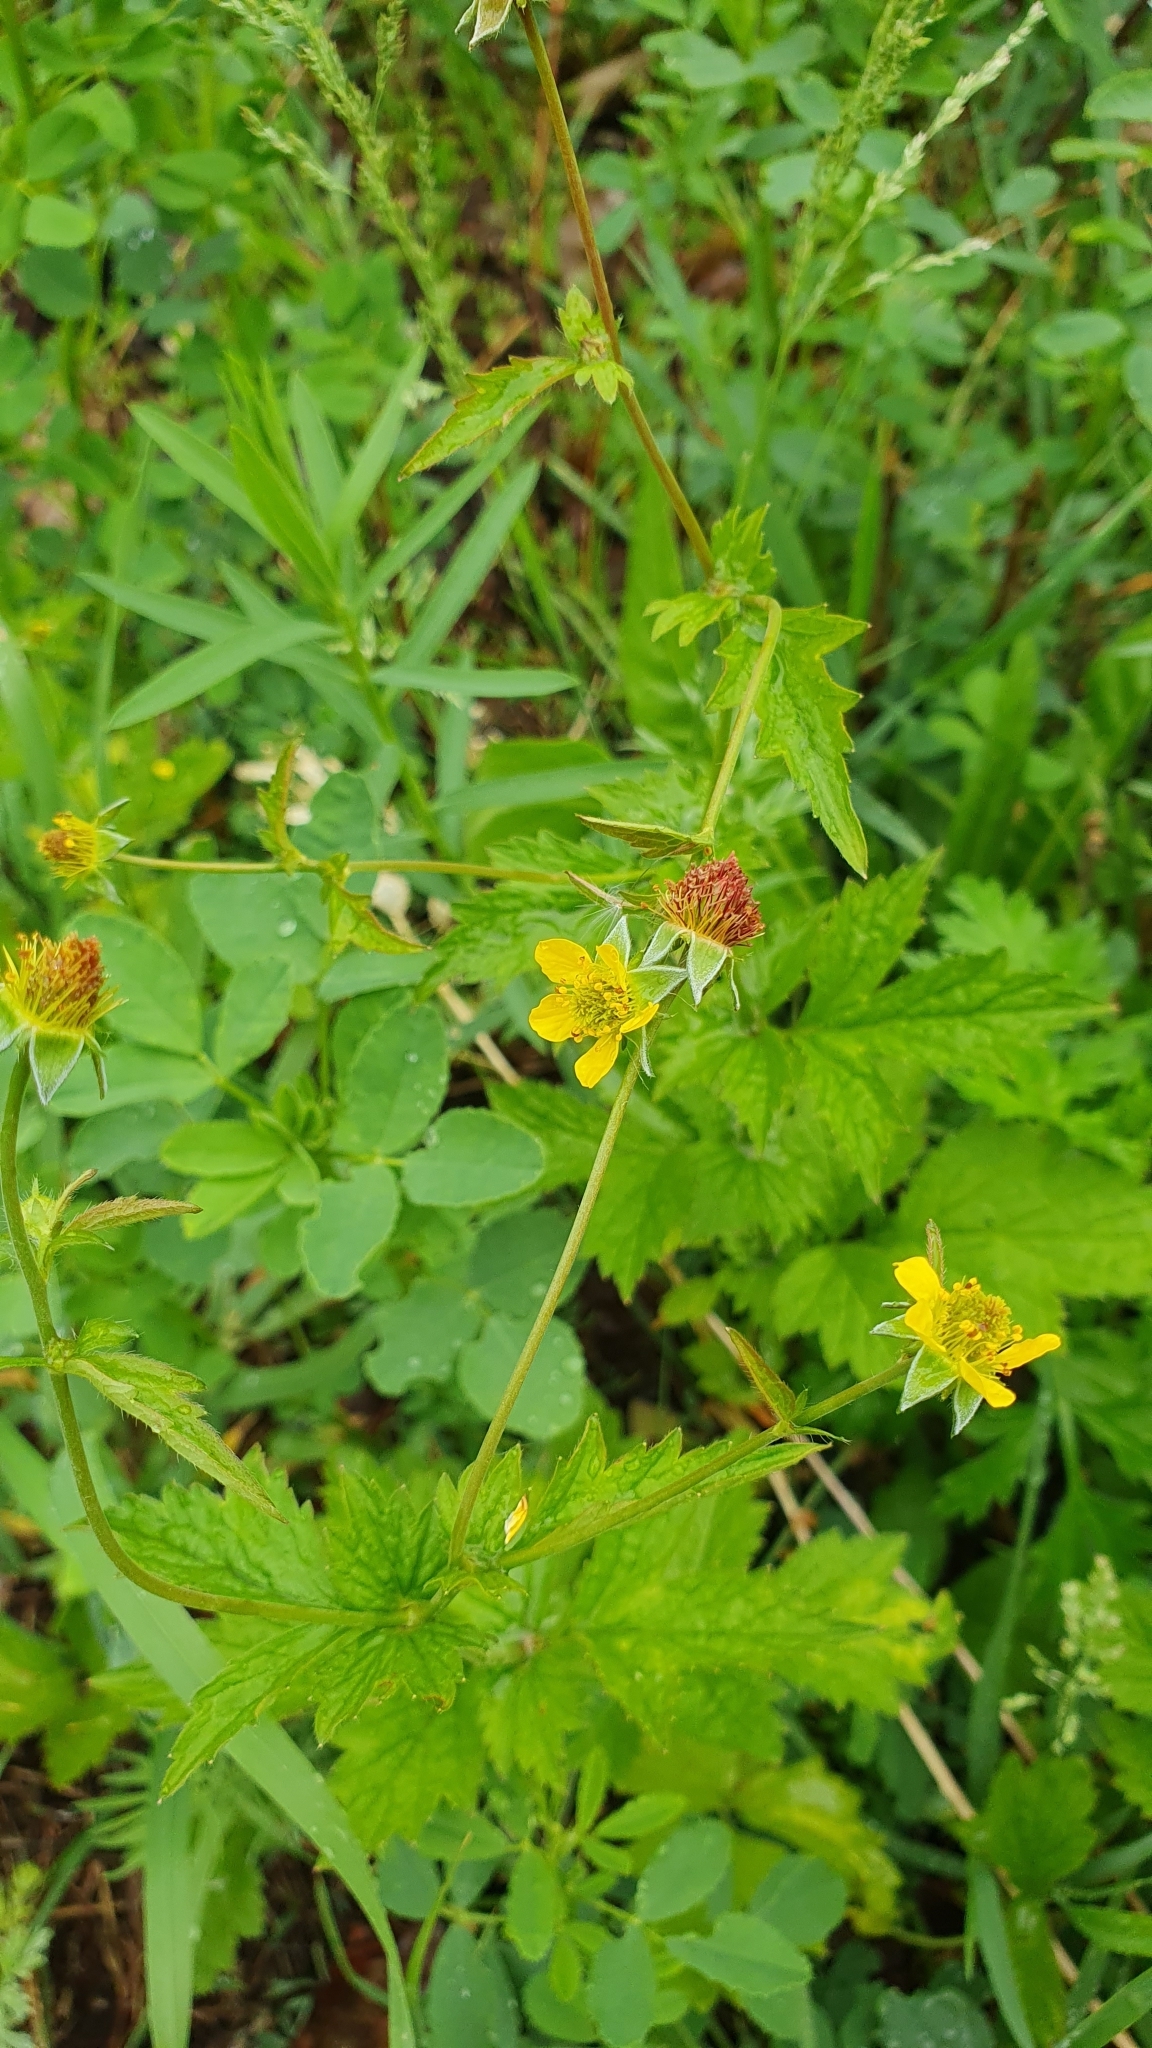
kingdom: Plantae
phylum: Tracheophyta
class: Magnoliopsida
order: Rosales
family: Rosaceae
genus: Geum
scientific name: Geum urbanum
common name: Wood avens
